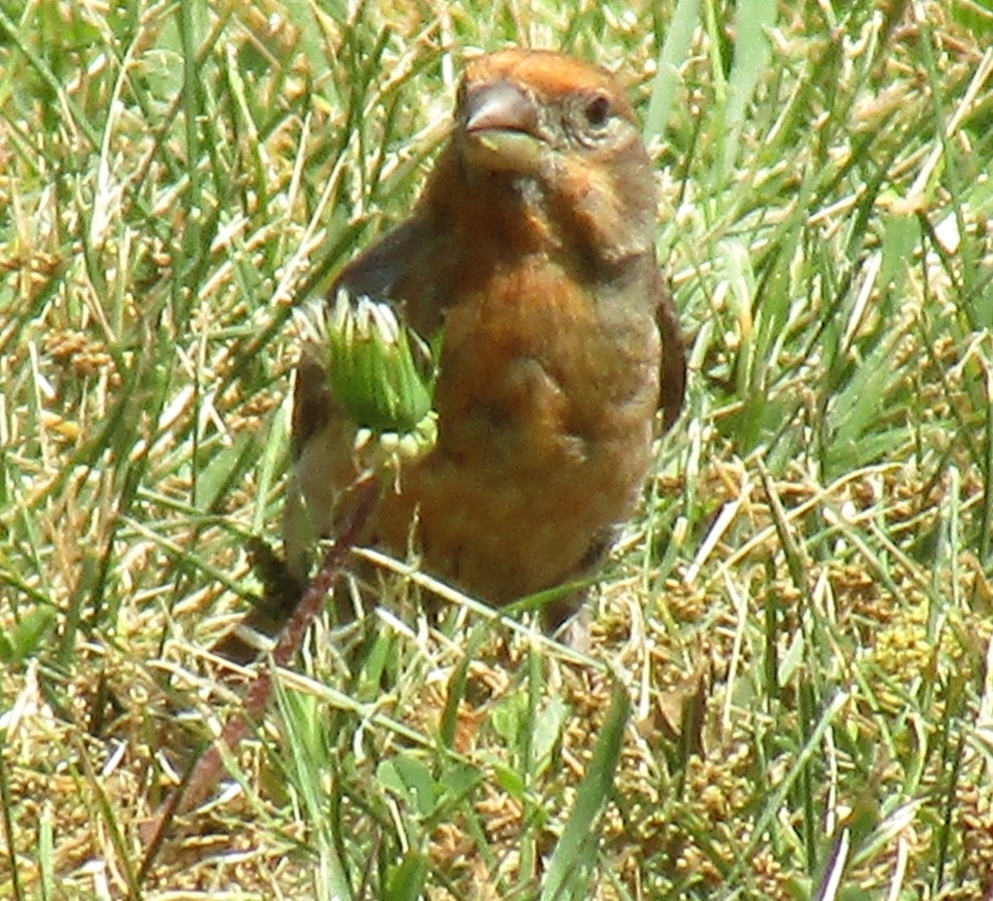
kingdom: Animalia
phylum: Chordata
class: Aves
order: Passeriformes
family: Fringillidae
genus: Haemorhous
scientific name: Haemorhous mexicanus
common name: House finch
